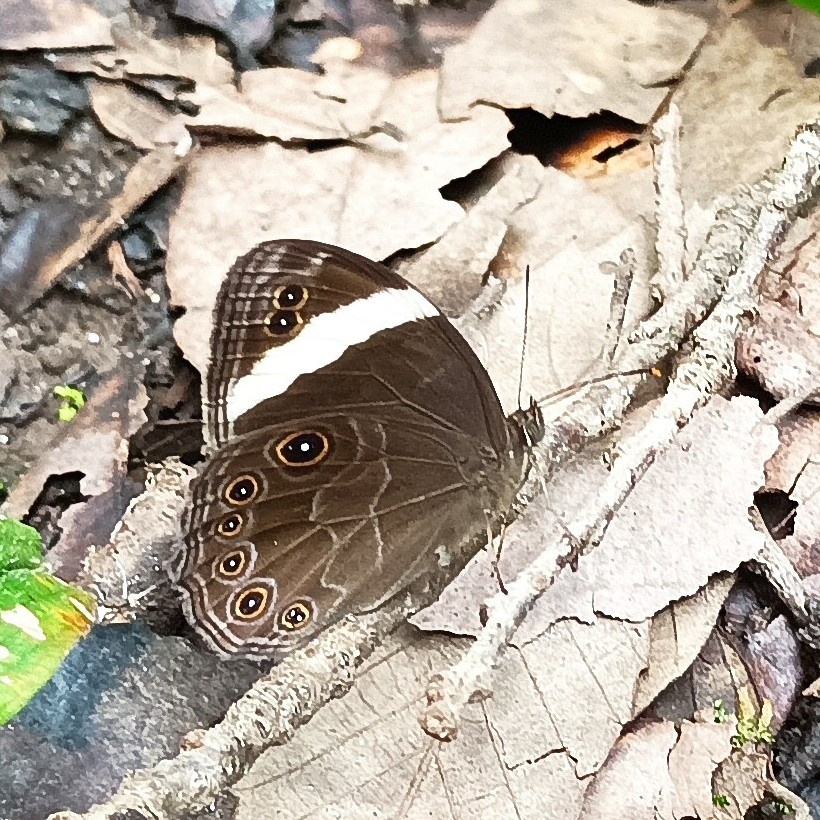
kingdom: Animalia
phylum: Arthropoda
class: Insecta
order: Lepidoptera
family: Nymphalidae
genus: Lethe
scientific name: Lethe verma
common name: Straight-banded treebrown
